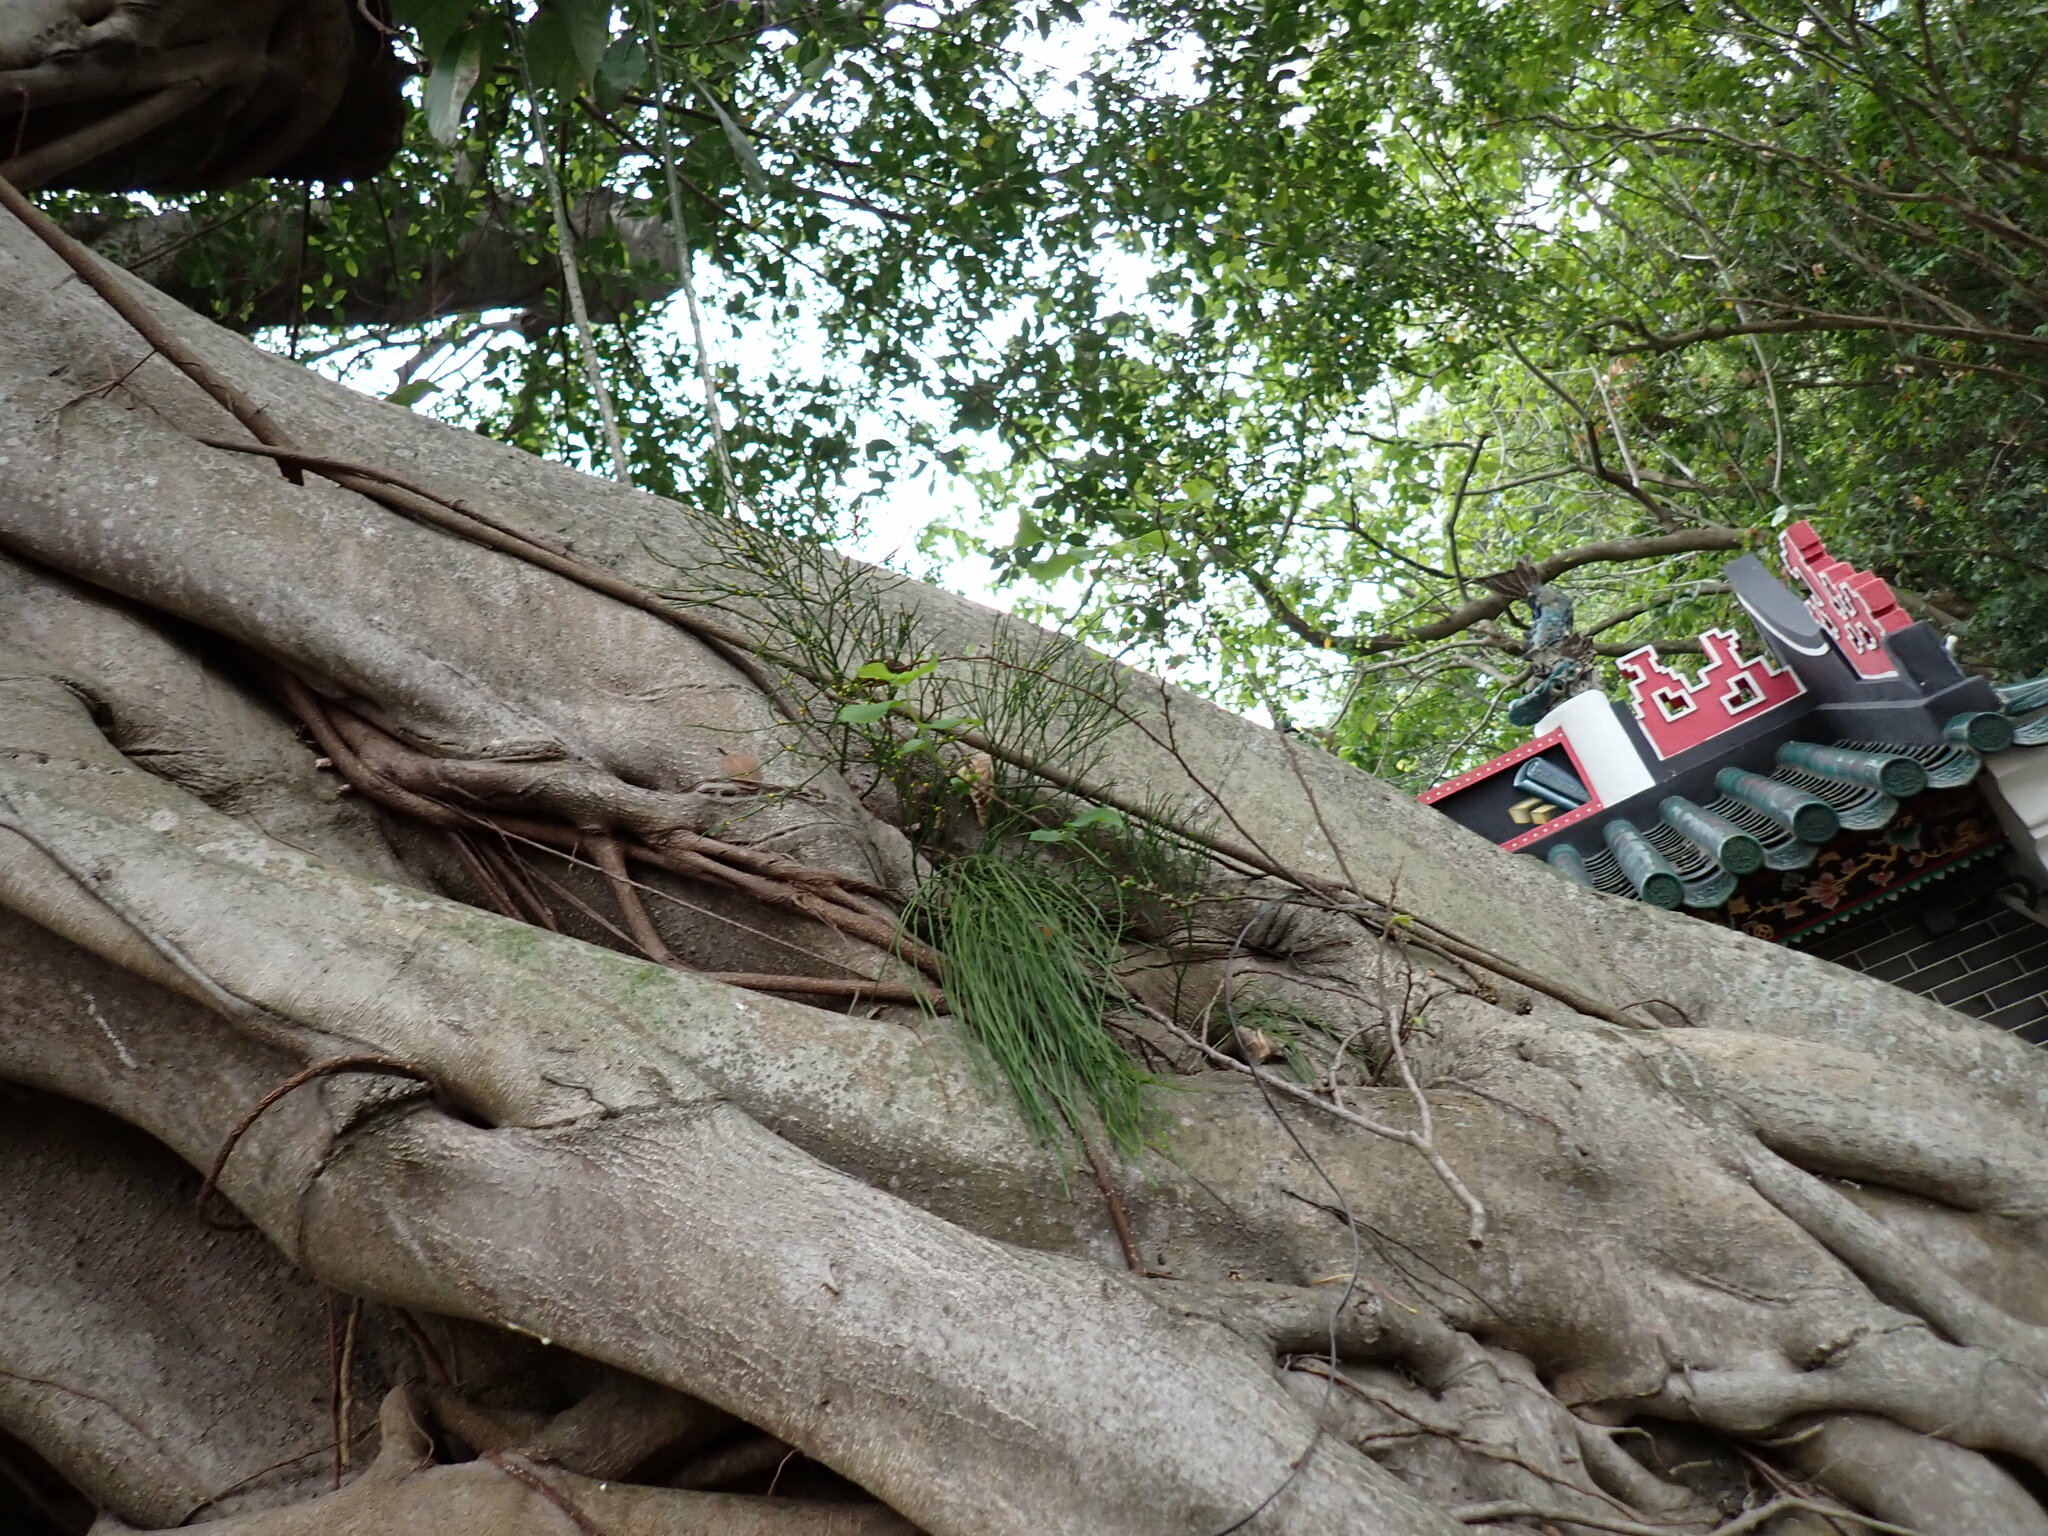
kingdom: Plantae
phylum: Tracheophyta
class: Polypodiopsida
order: Psilotales
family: Psilotaceae
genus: Psilotum
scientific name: Psilotum nudum
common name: Skeleton fork fern
